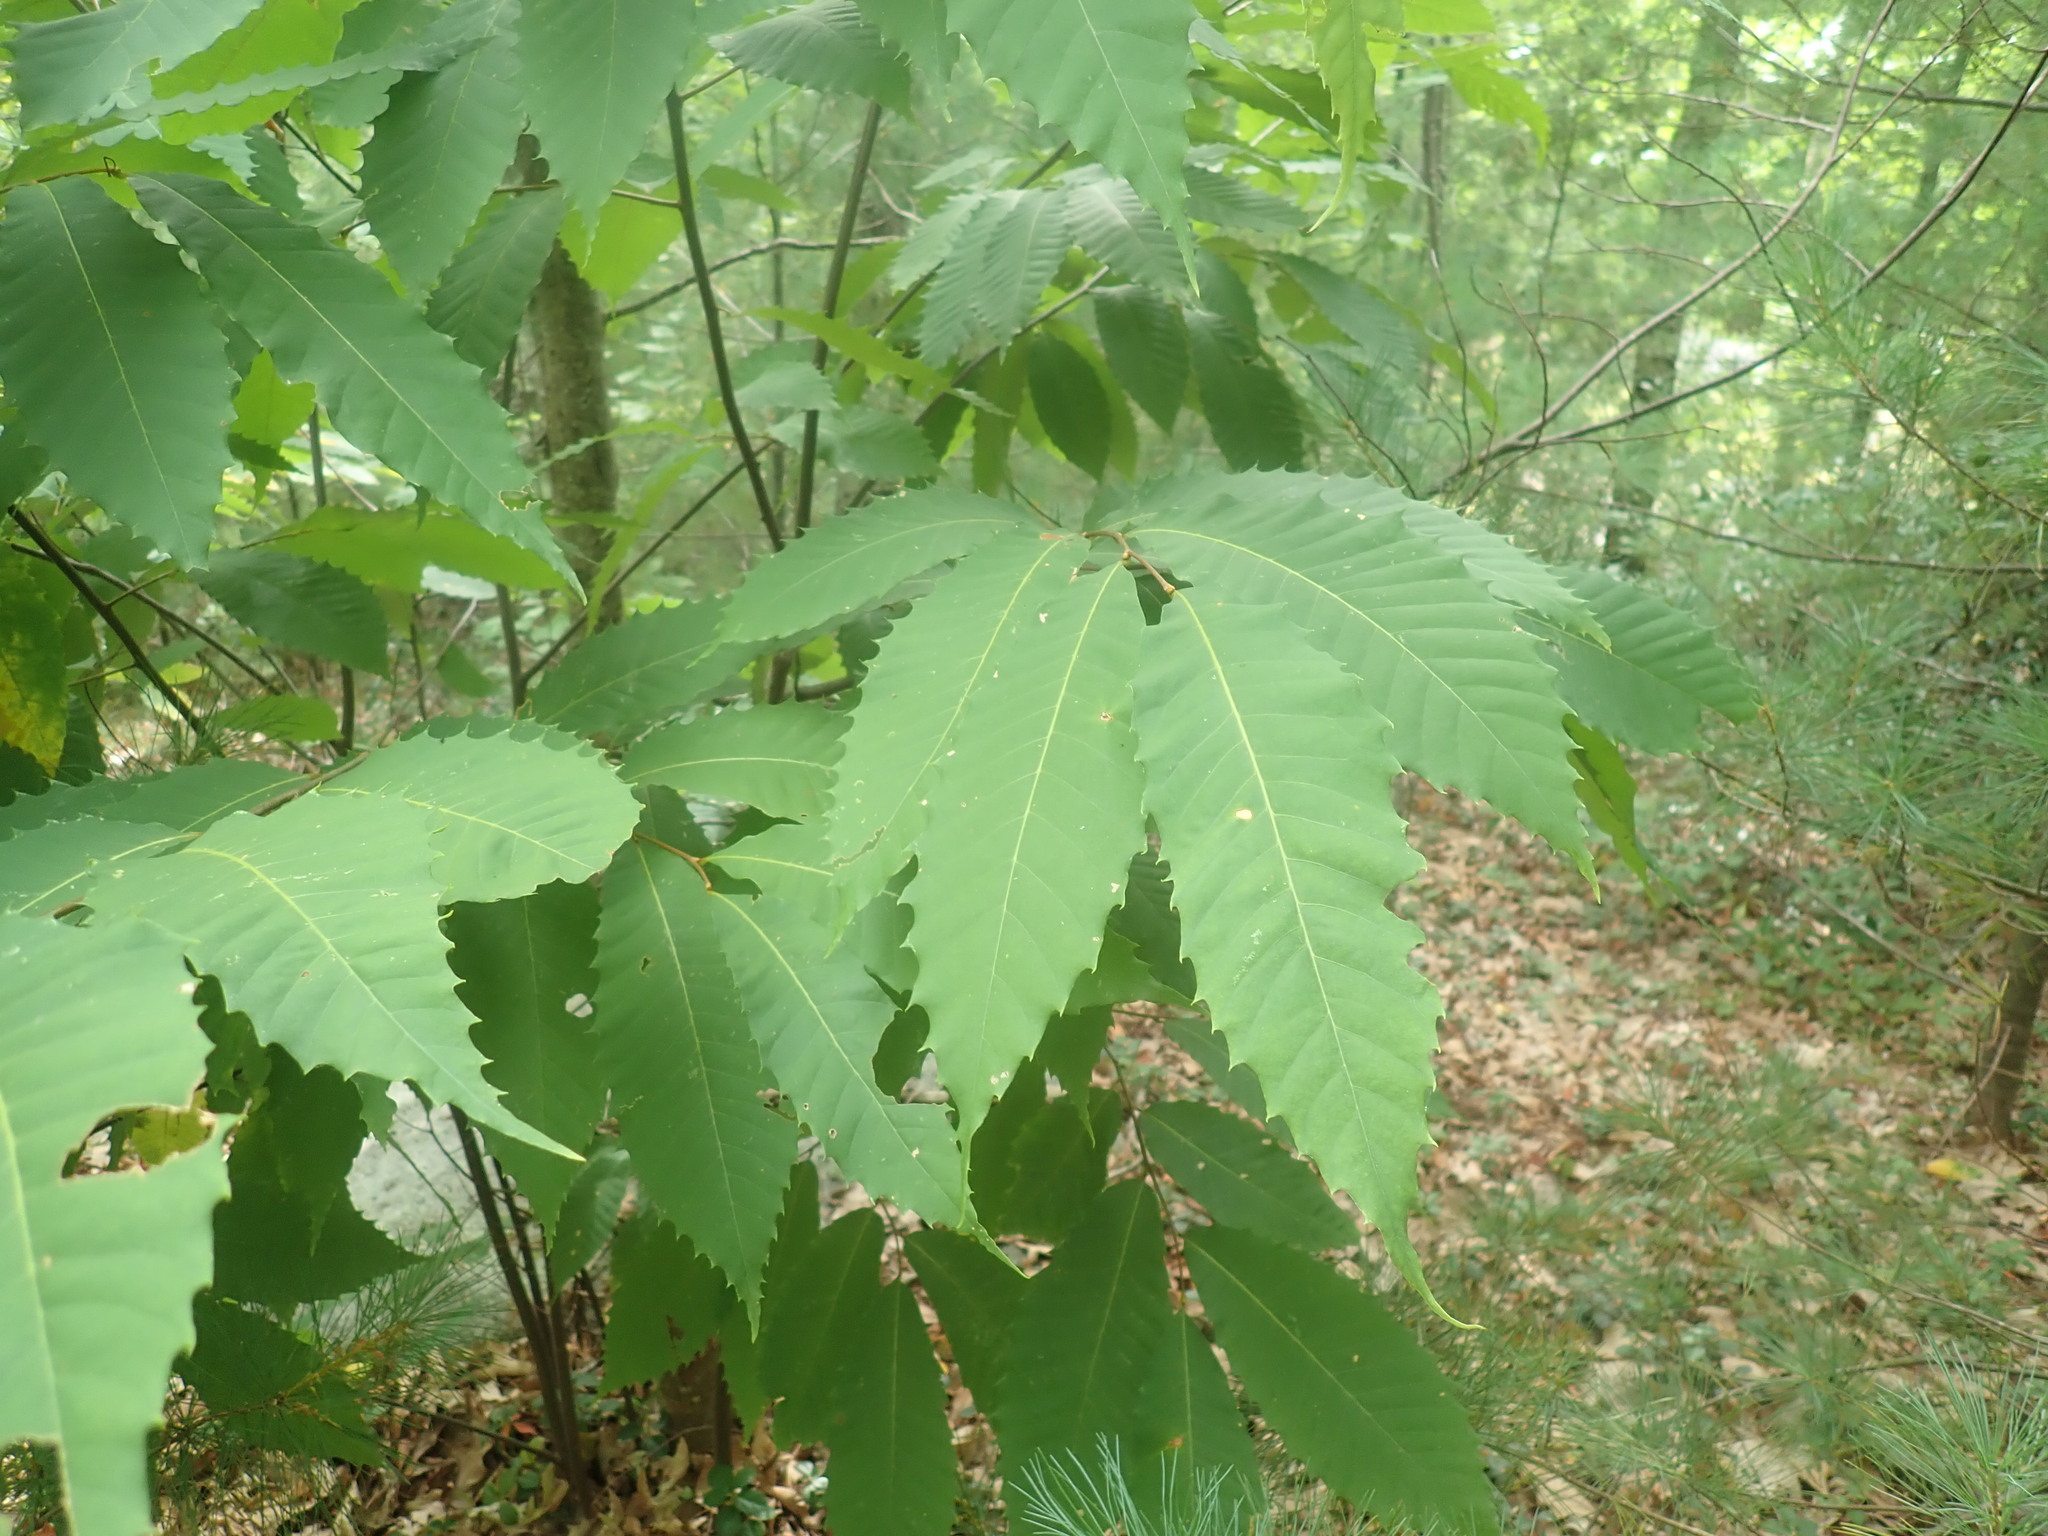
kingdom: Plantae
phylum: Tracheophyta
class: Magnoliopsida
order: Fagales
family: Fagaceae
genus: Castanea
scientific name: Castanea dentata
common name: American chestnut
